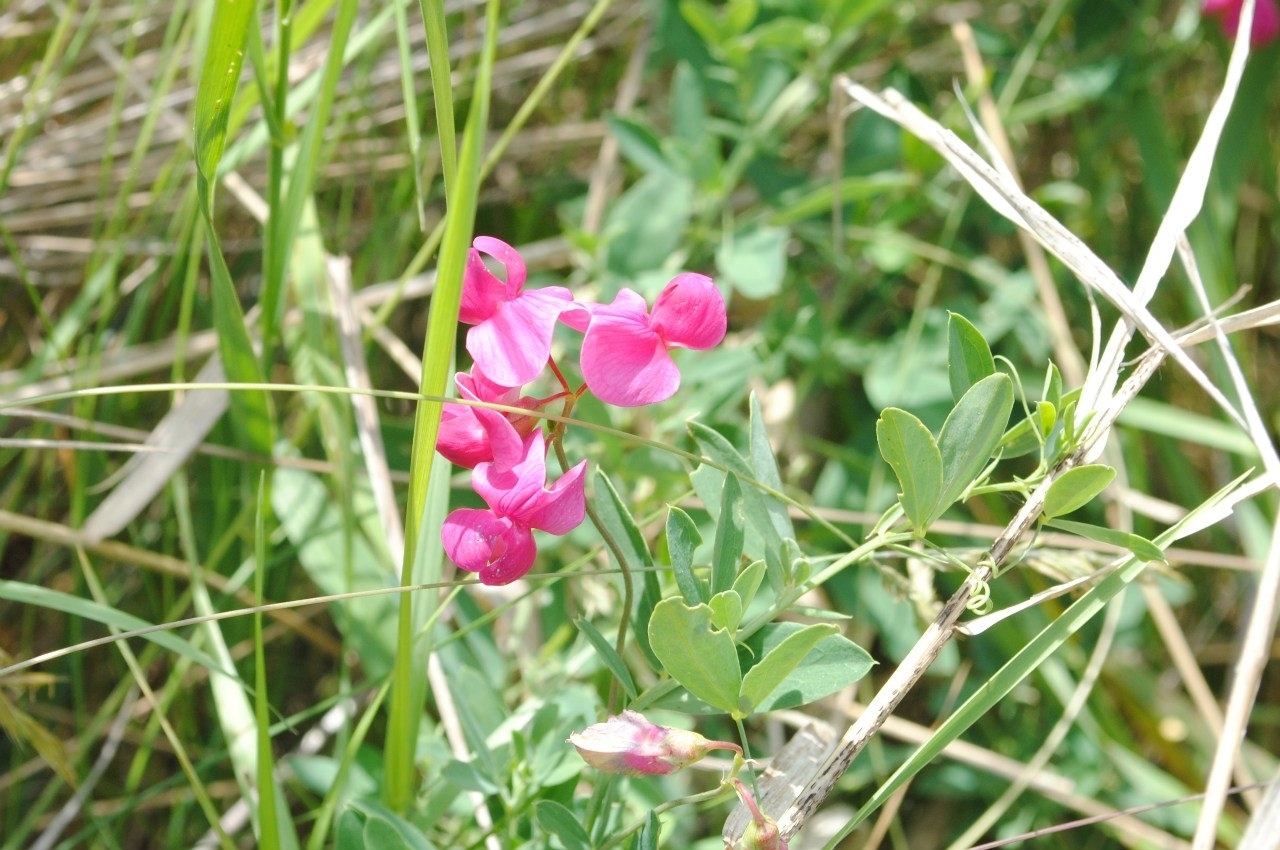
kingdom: Plantae
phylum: Tracheophyta
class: Magnoliopsida
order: Fabales
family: Fabaceae
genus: Lathyrus
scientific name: Lathyrus tuberosus
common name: Tuberous pea
